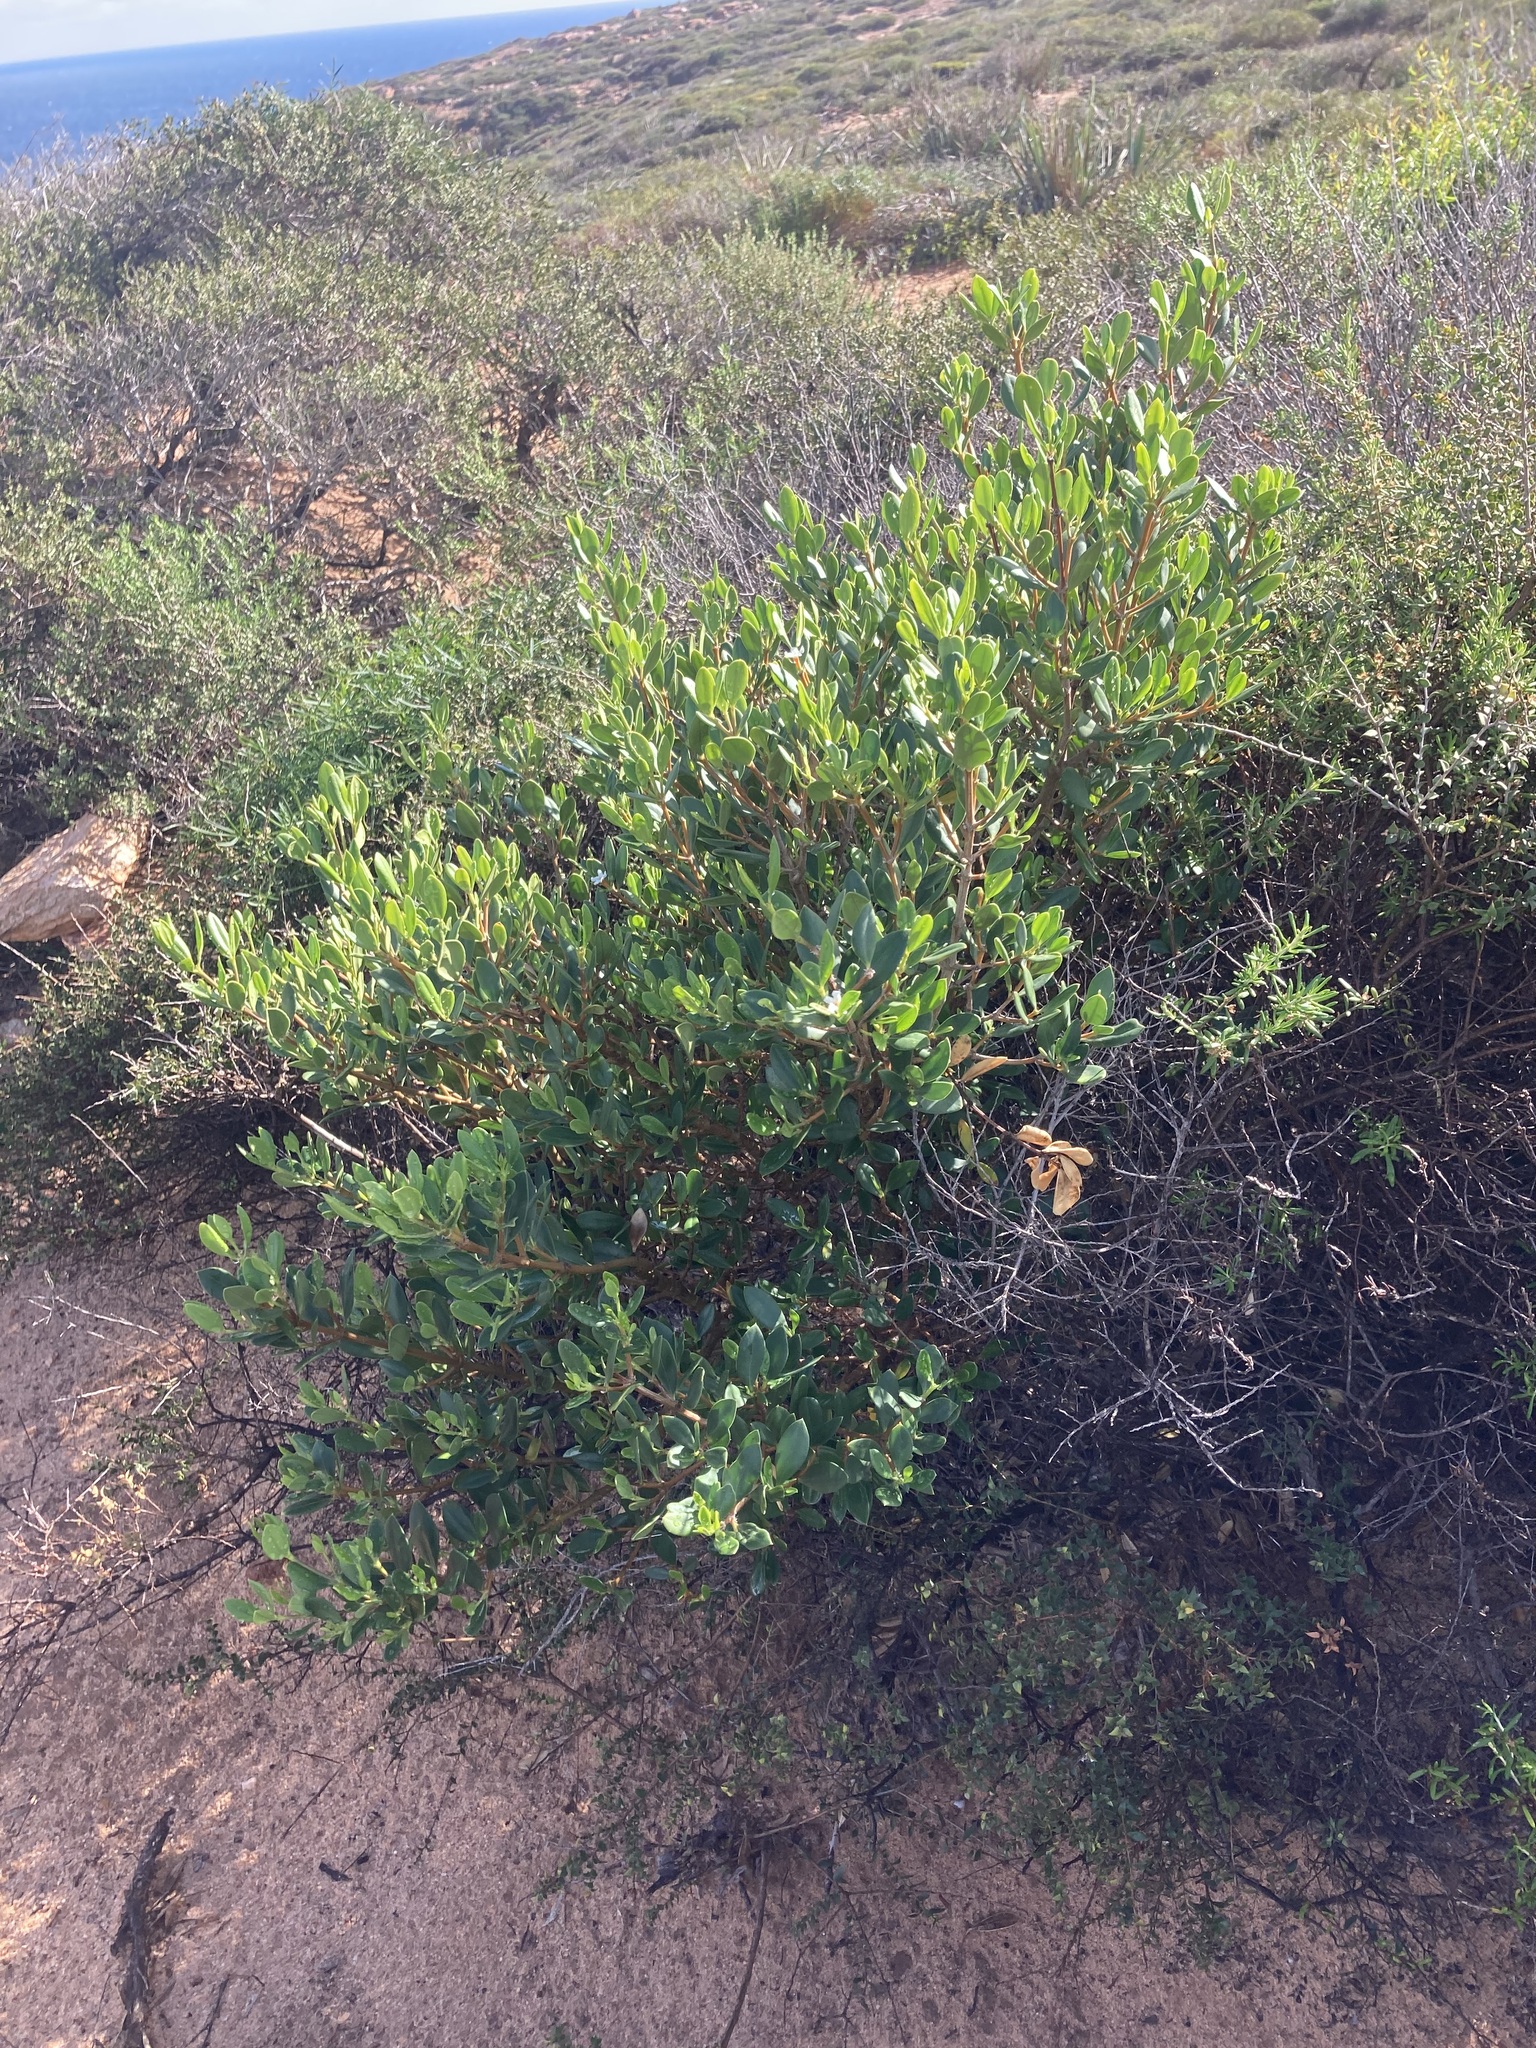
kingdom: Plantae
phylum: Tracheophyta
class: Magnoliopsida
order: Gentianales
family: Apocynaceae
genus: Alyxia
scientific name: Alyxia buxifolia
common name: Dysentery-bush
